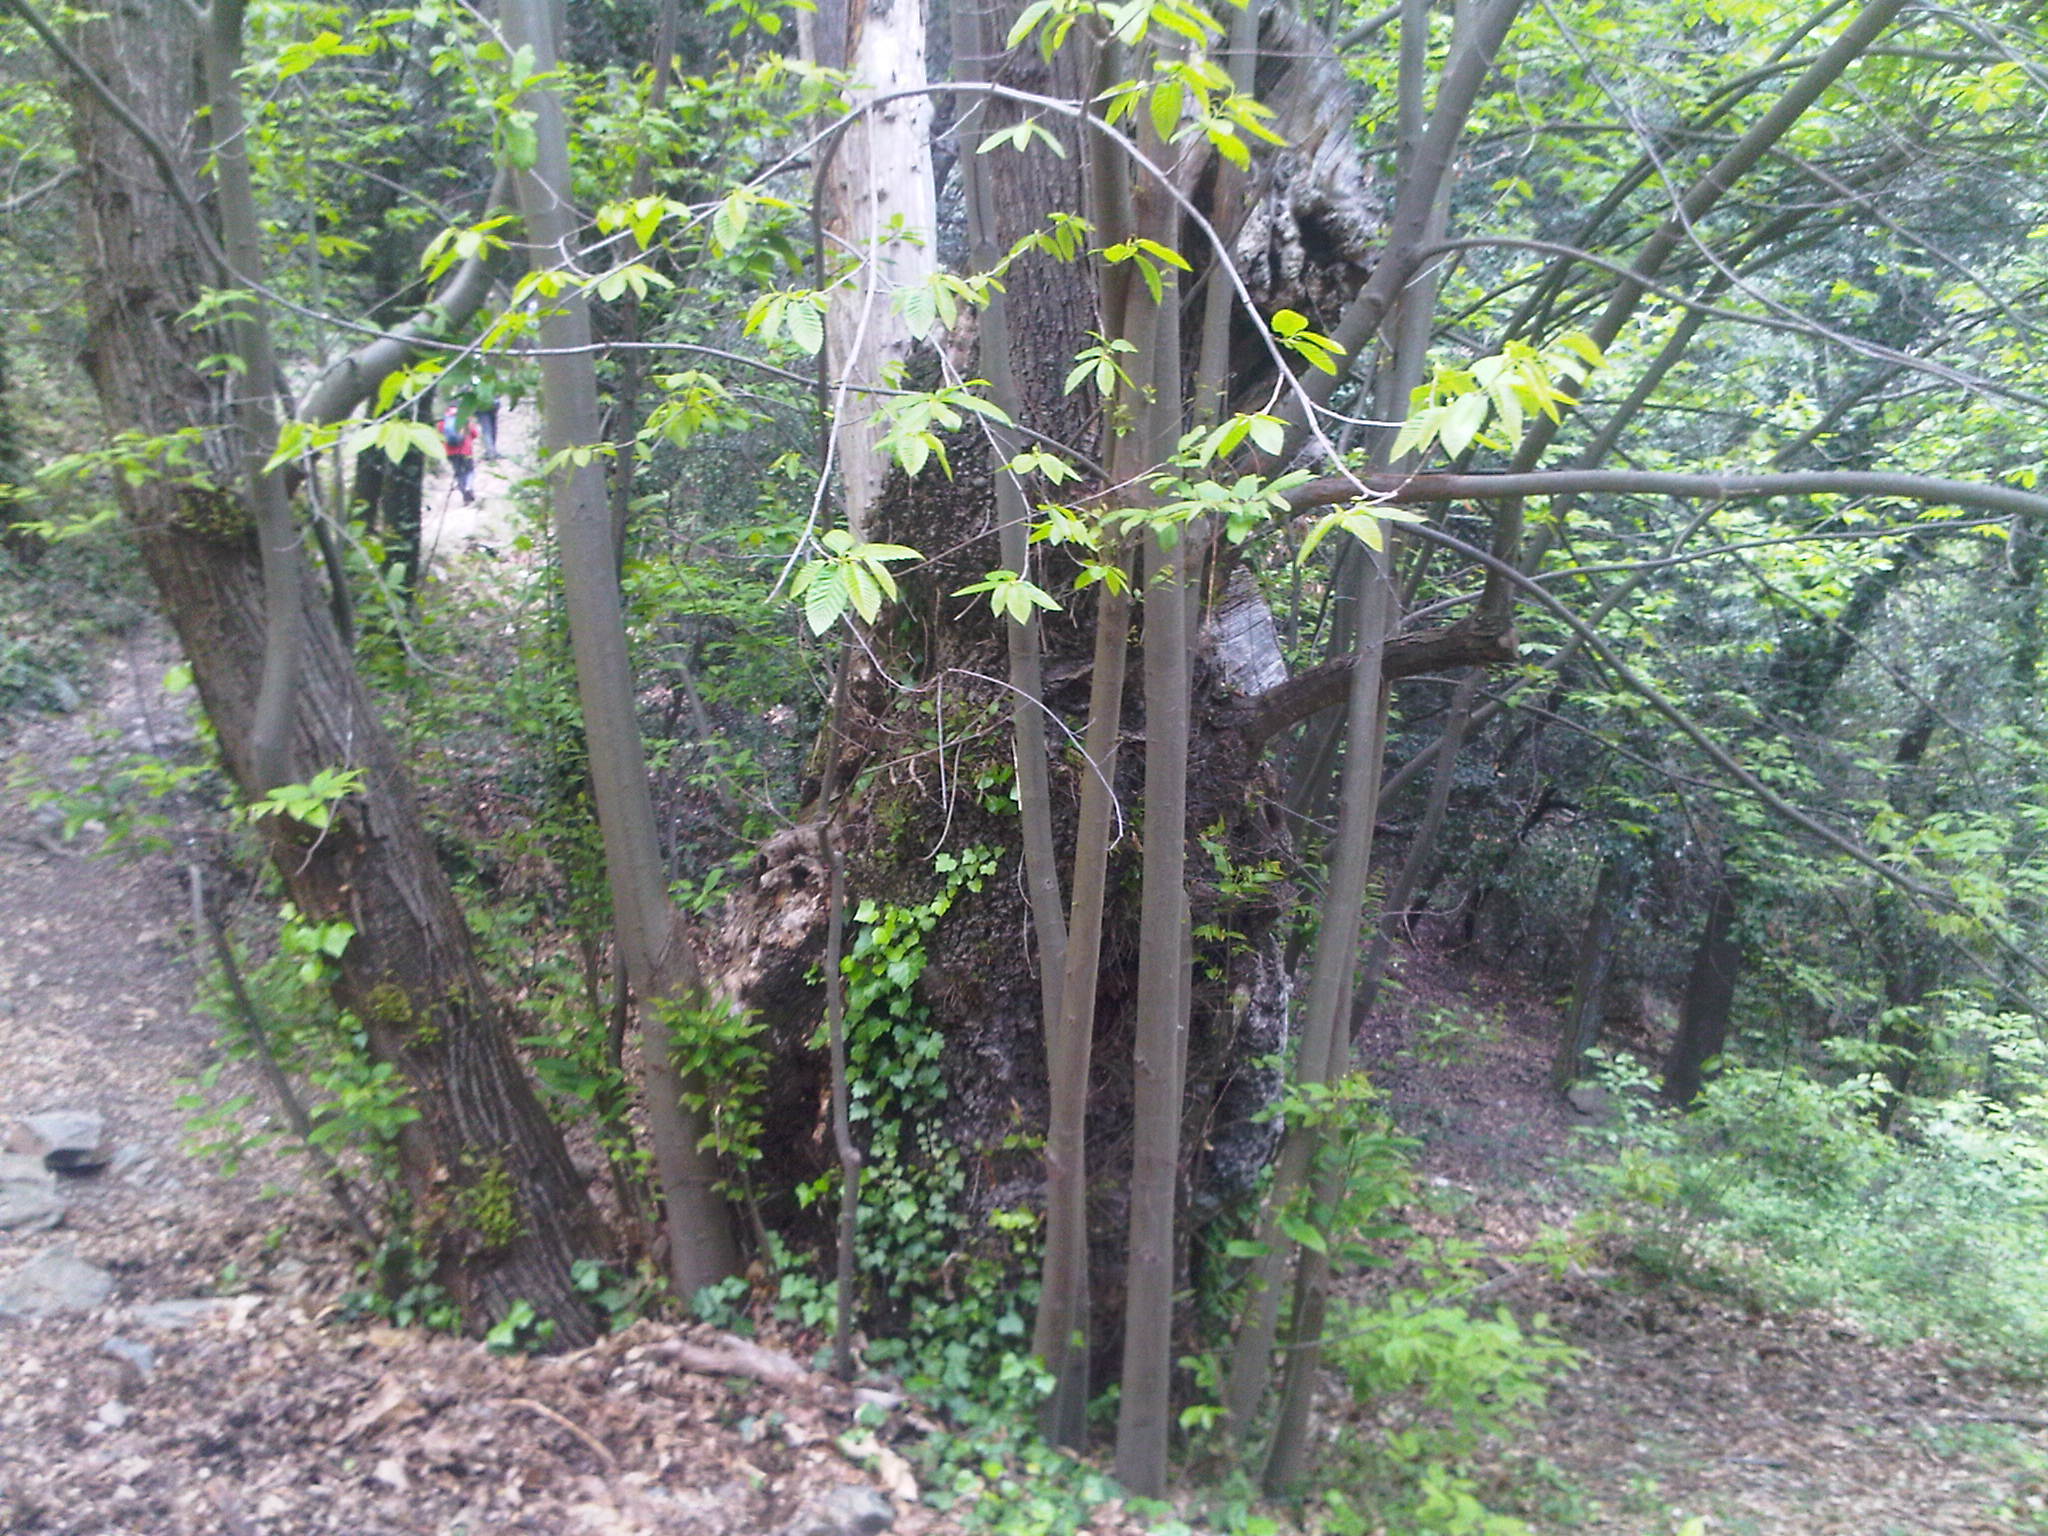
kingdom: Plantae
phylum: Tracheophyta
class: Magnoliopsida
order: Fagales
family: Fagaceae
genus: Castanea
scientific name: Castanea sativa
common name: Sweet chestnut
